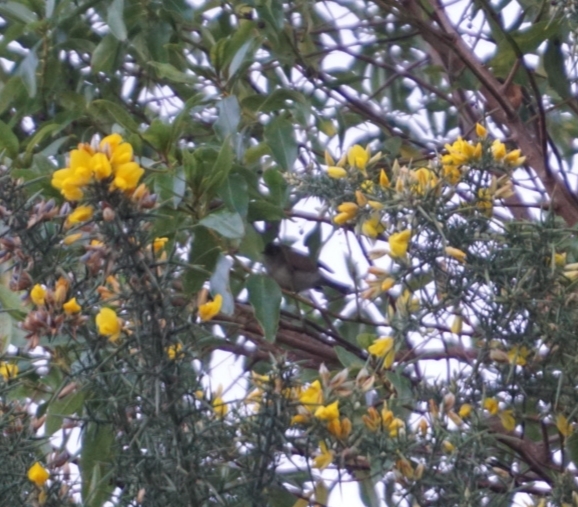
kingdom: Animalia
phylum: Chordata
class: Aves
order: Passeriformes
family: Zosteropidae
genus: Zosterops
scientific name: Zosterops lateralis
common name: Silvereye
